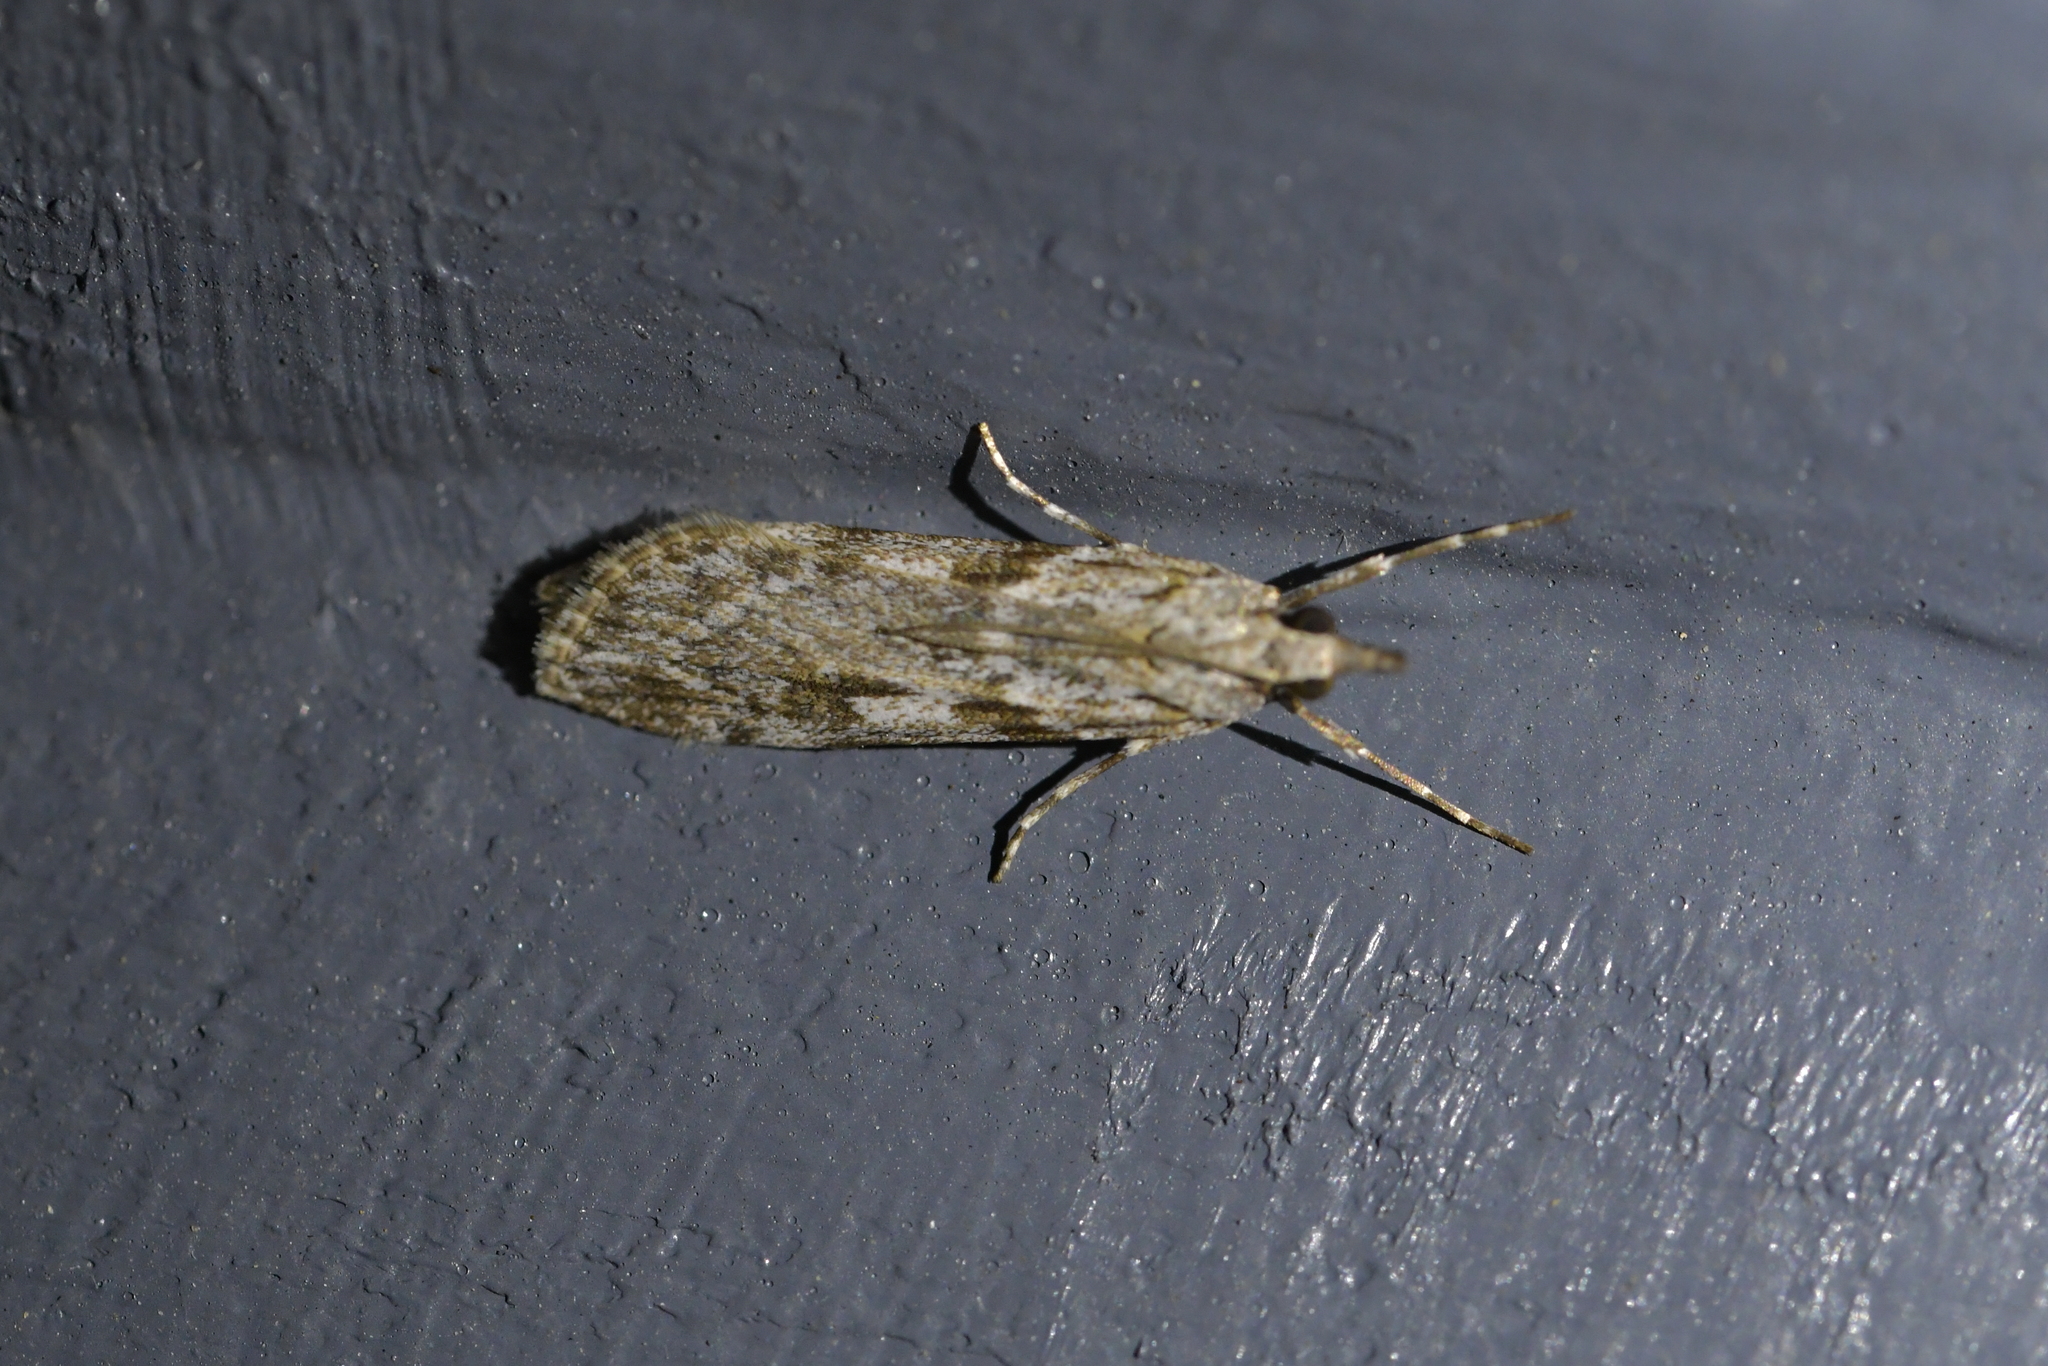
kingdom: Animalia
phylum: Arthropoda
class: Insecta
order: Lepidoptera
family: Crambidae
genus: Scoparia
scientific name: Scoparia halopis
